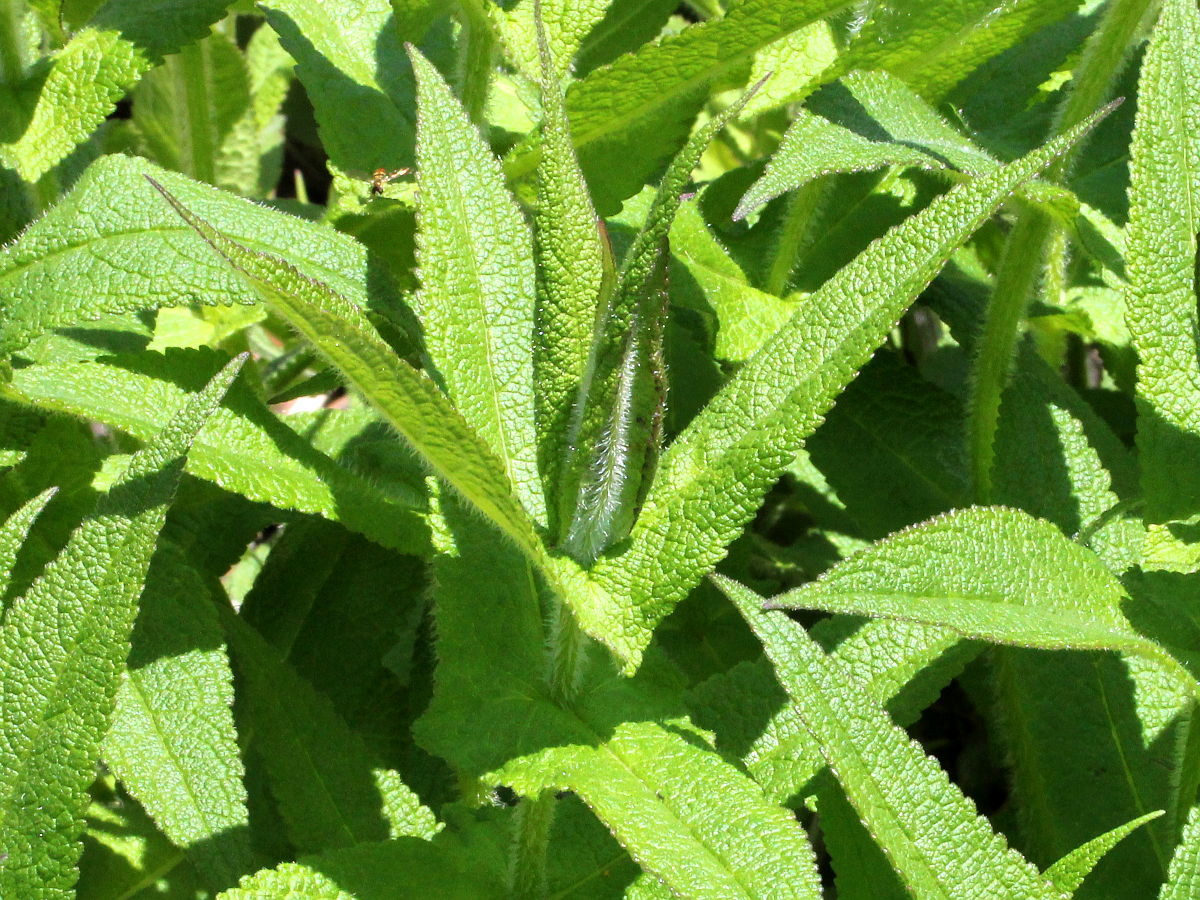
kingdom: Plantae
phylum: Tracheophyta
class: Magnoliopsida
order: Asterales
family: Asteraceae
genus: Eupatorium
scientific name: Eupatorium perfoliatum
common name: Boneset
